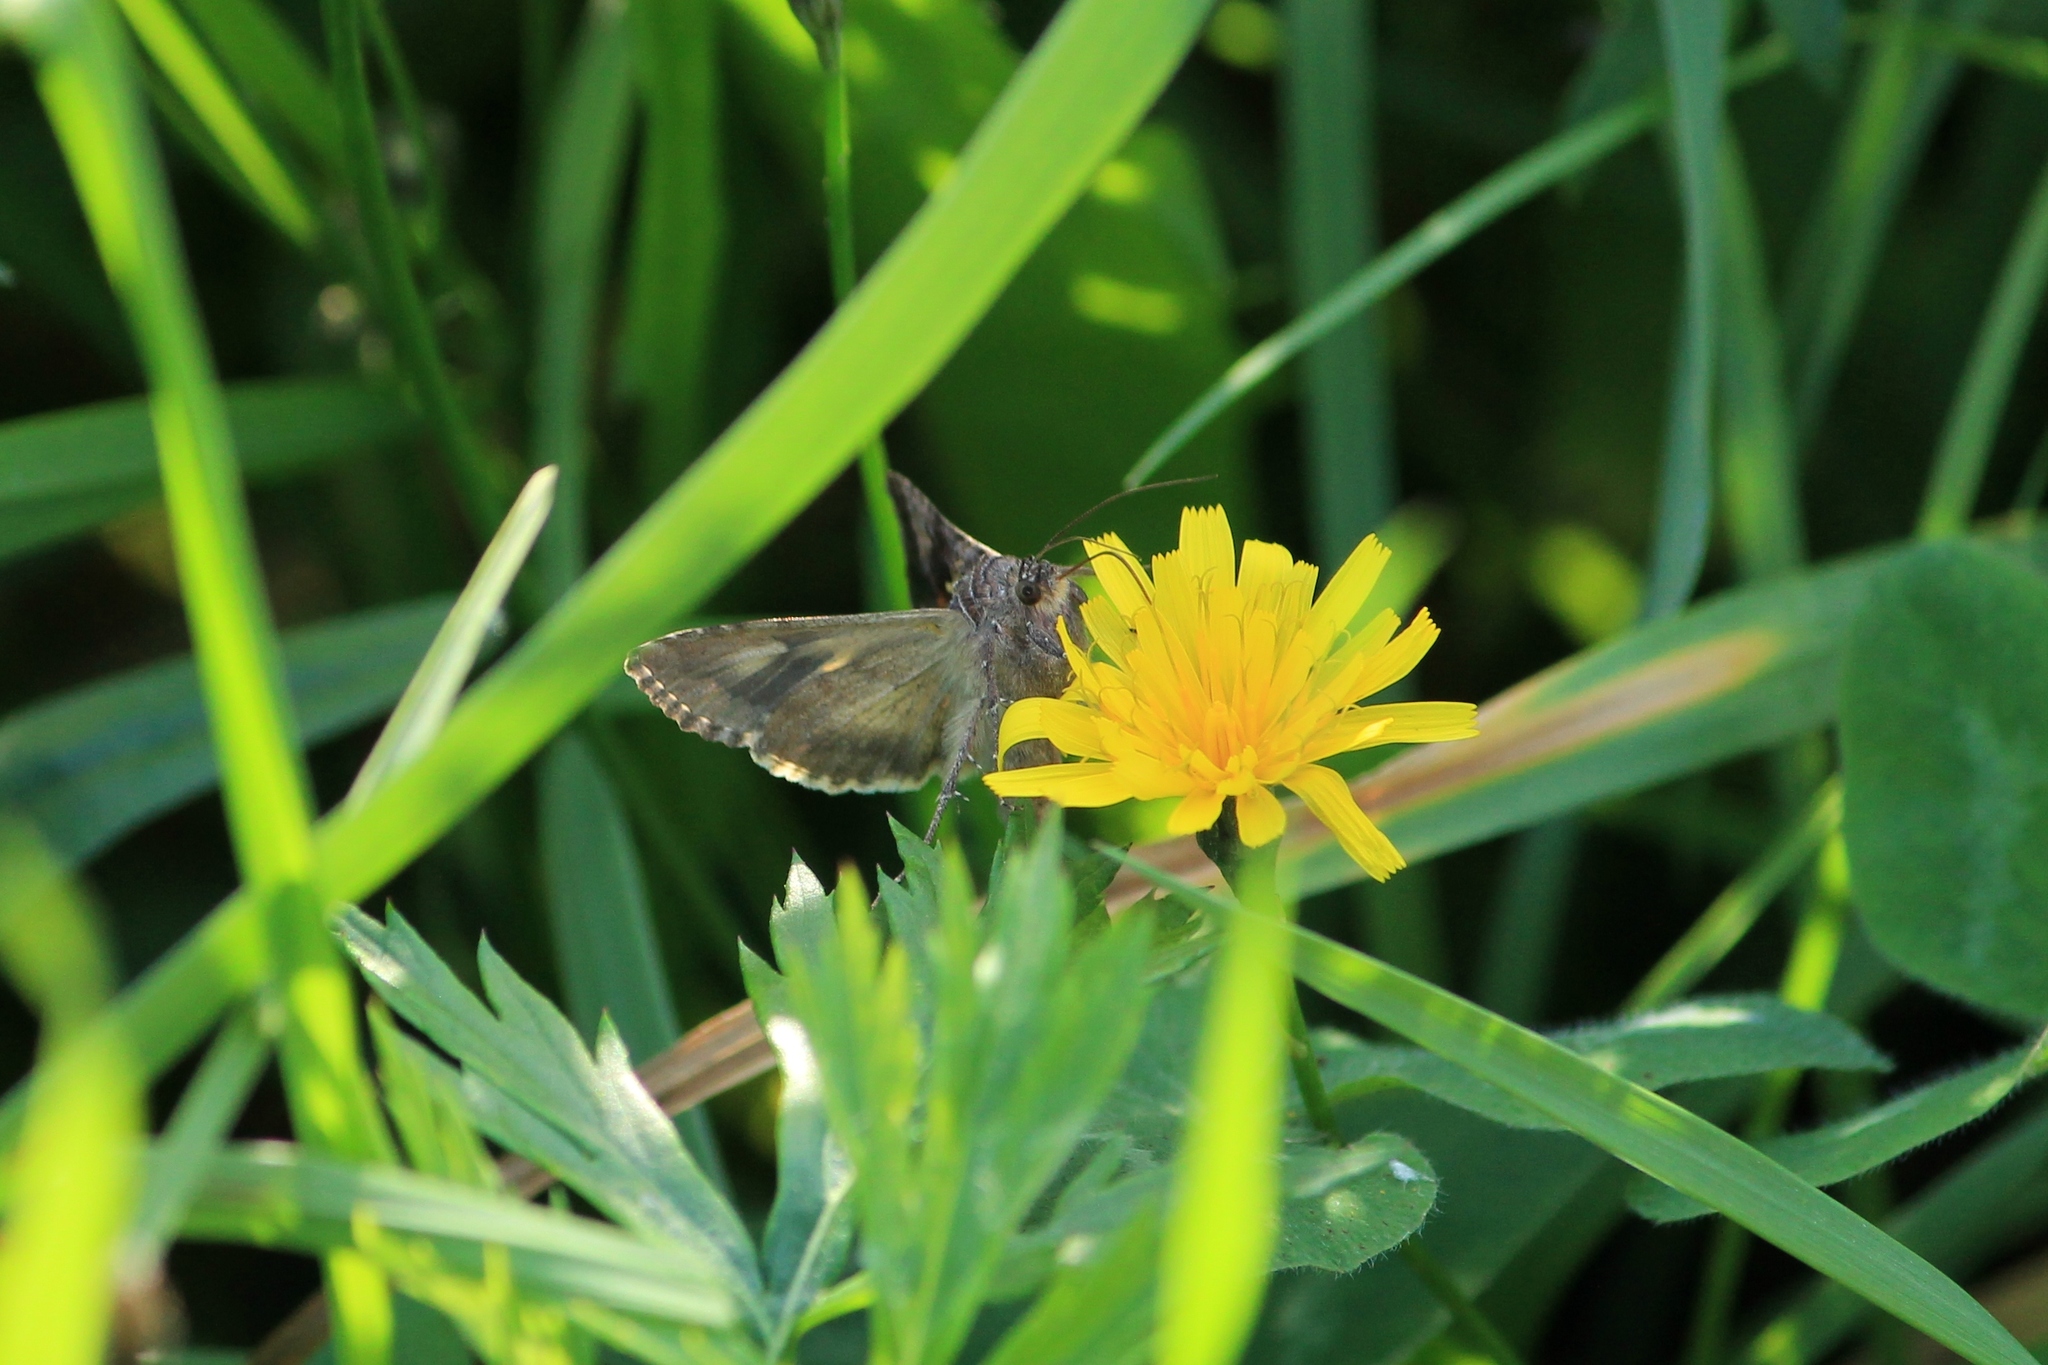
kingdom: Animalia
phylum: Arthropoda
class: Insecta
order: Lepidoptera
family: Noctuidae
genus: Autographa
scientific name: Autographa gamma
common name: Silver y
